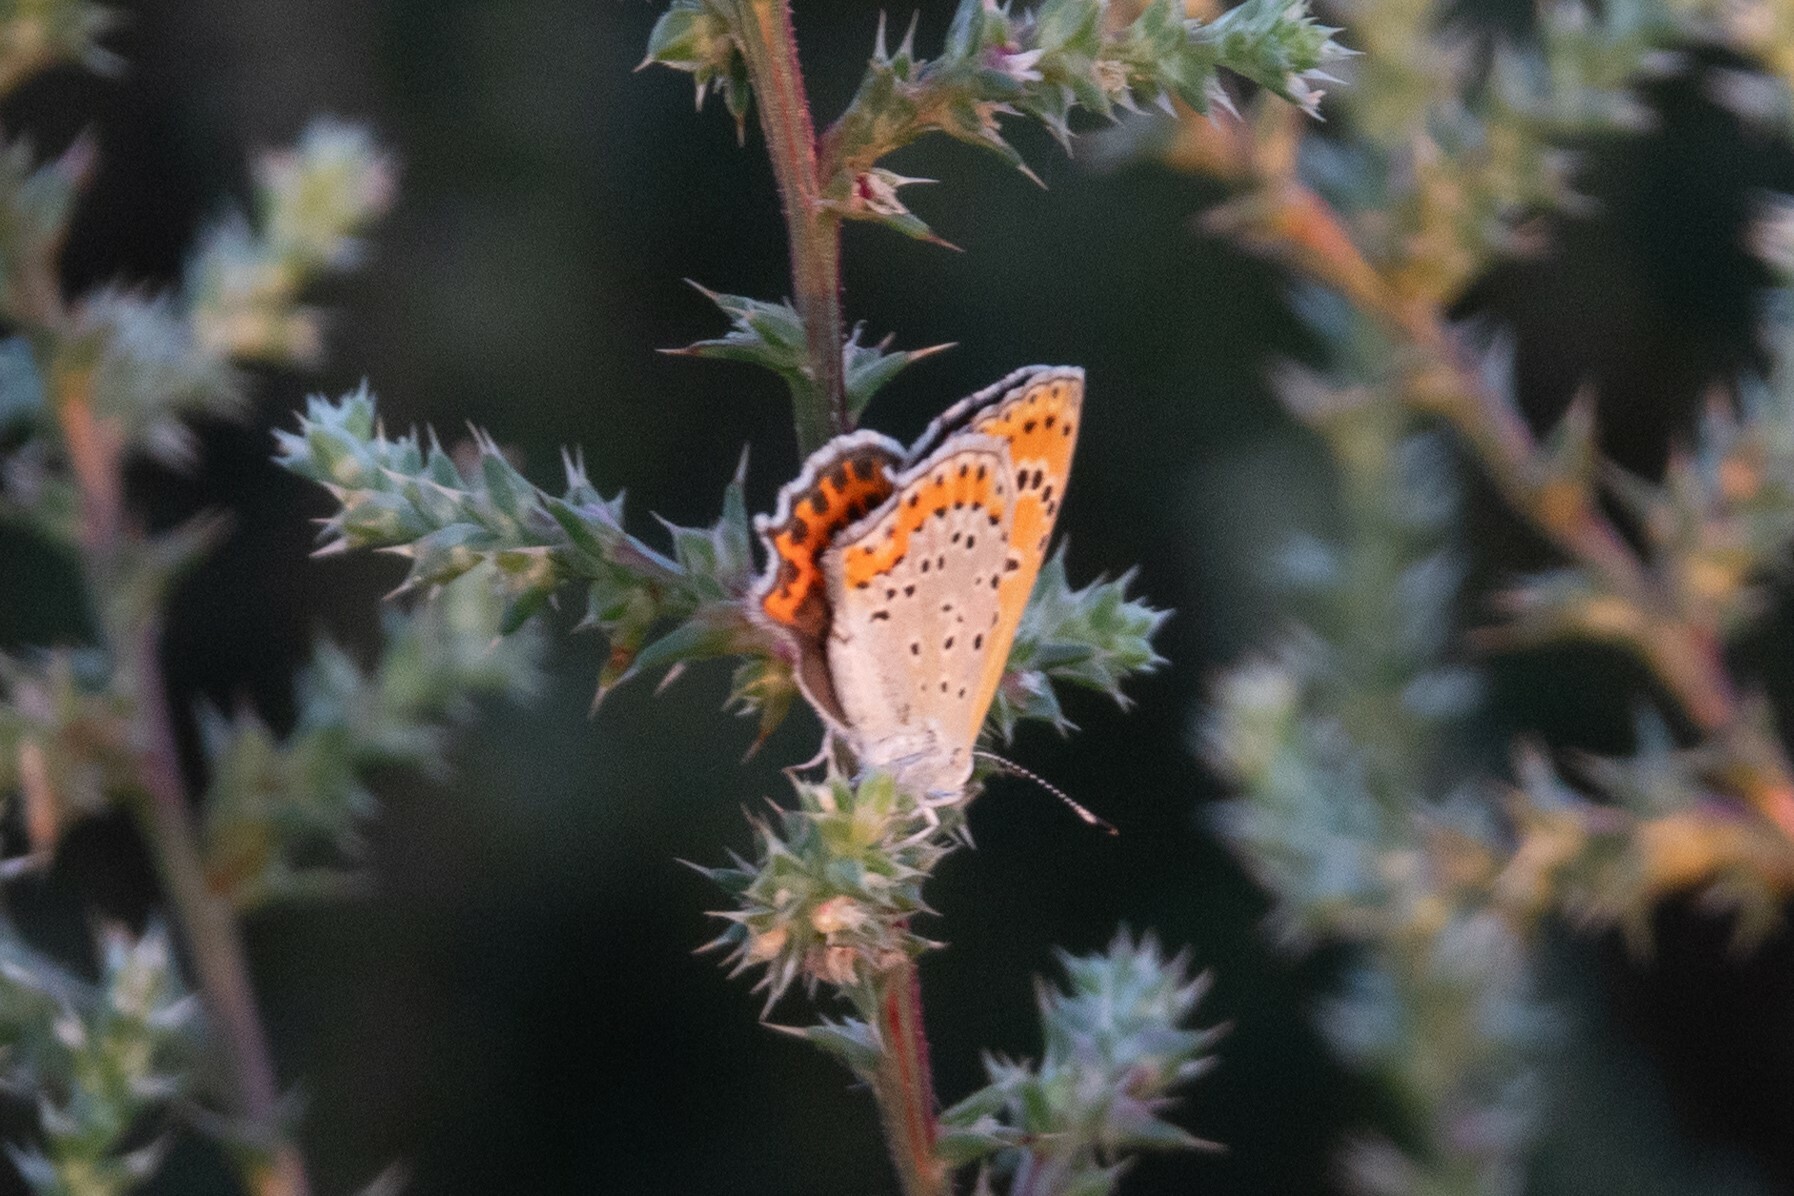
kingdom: Animalia
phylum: Arthropoda
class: Insecta
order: Lepidoptera
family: Lycaenidae
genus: Thersamonia
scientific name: Thersamonia thersamon
